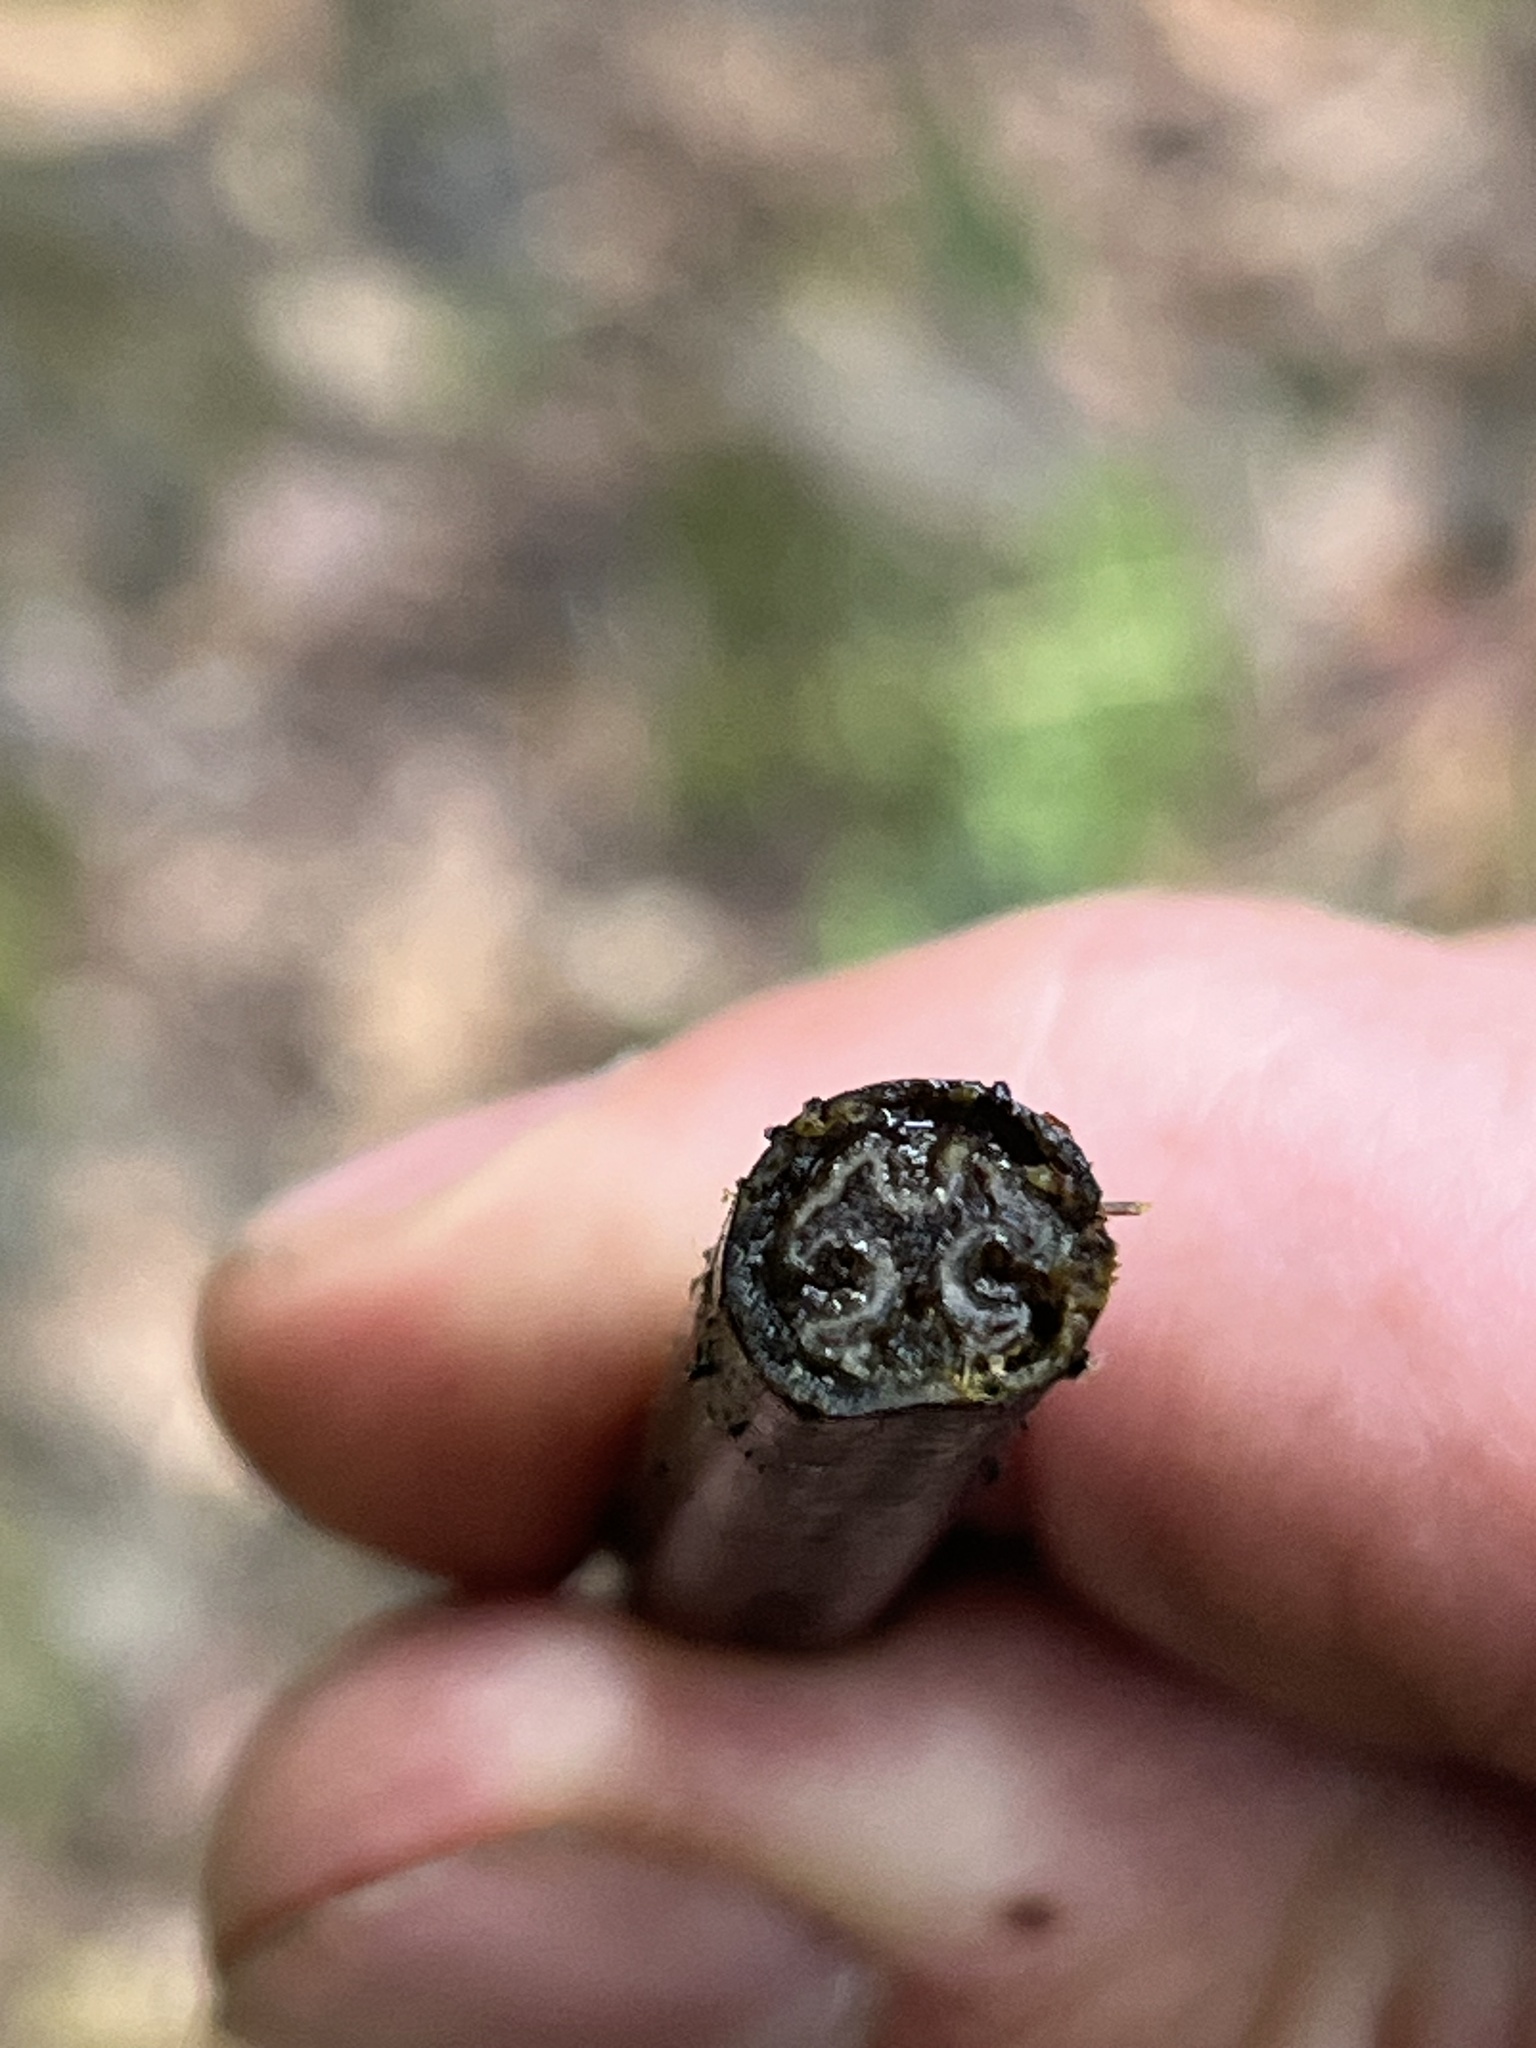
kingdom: Plantae
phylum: Tracheophyta
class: Polypodiopsida
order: Polypodiales
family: Dennstaedtiaceae
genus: Histiopteris
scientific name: Histiopteris incisa
